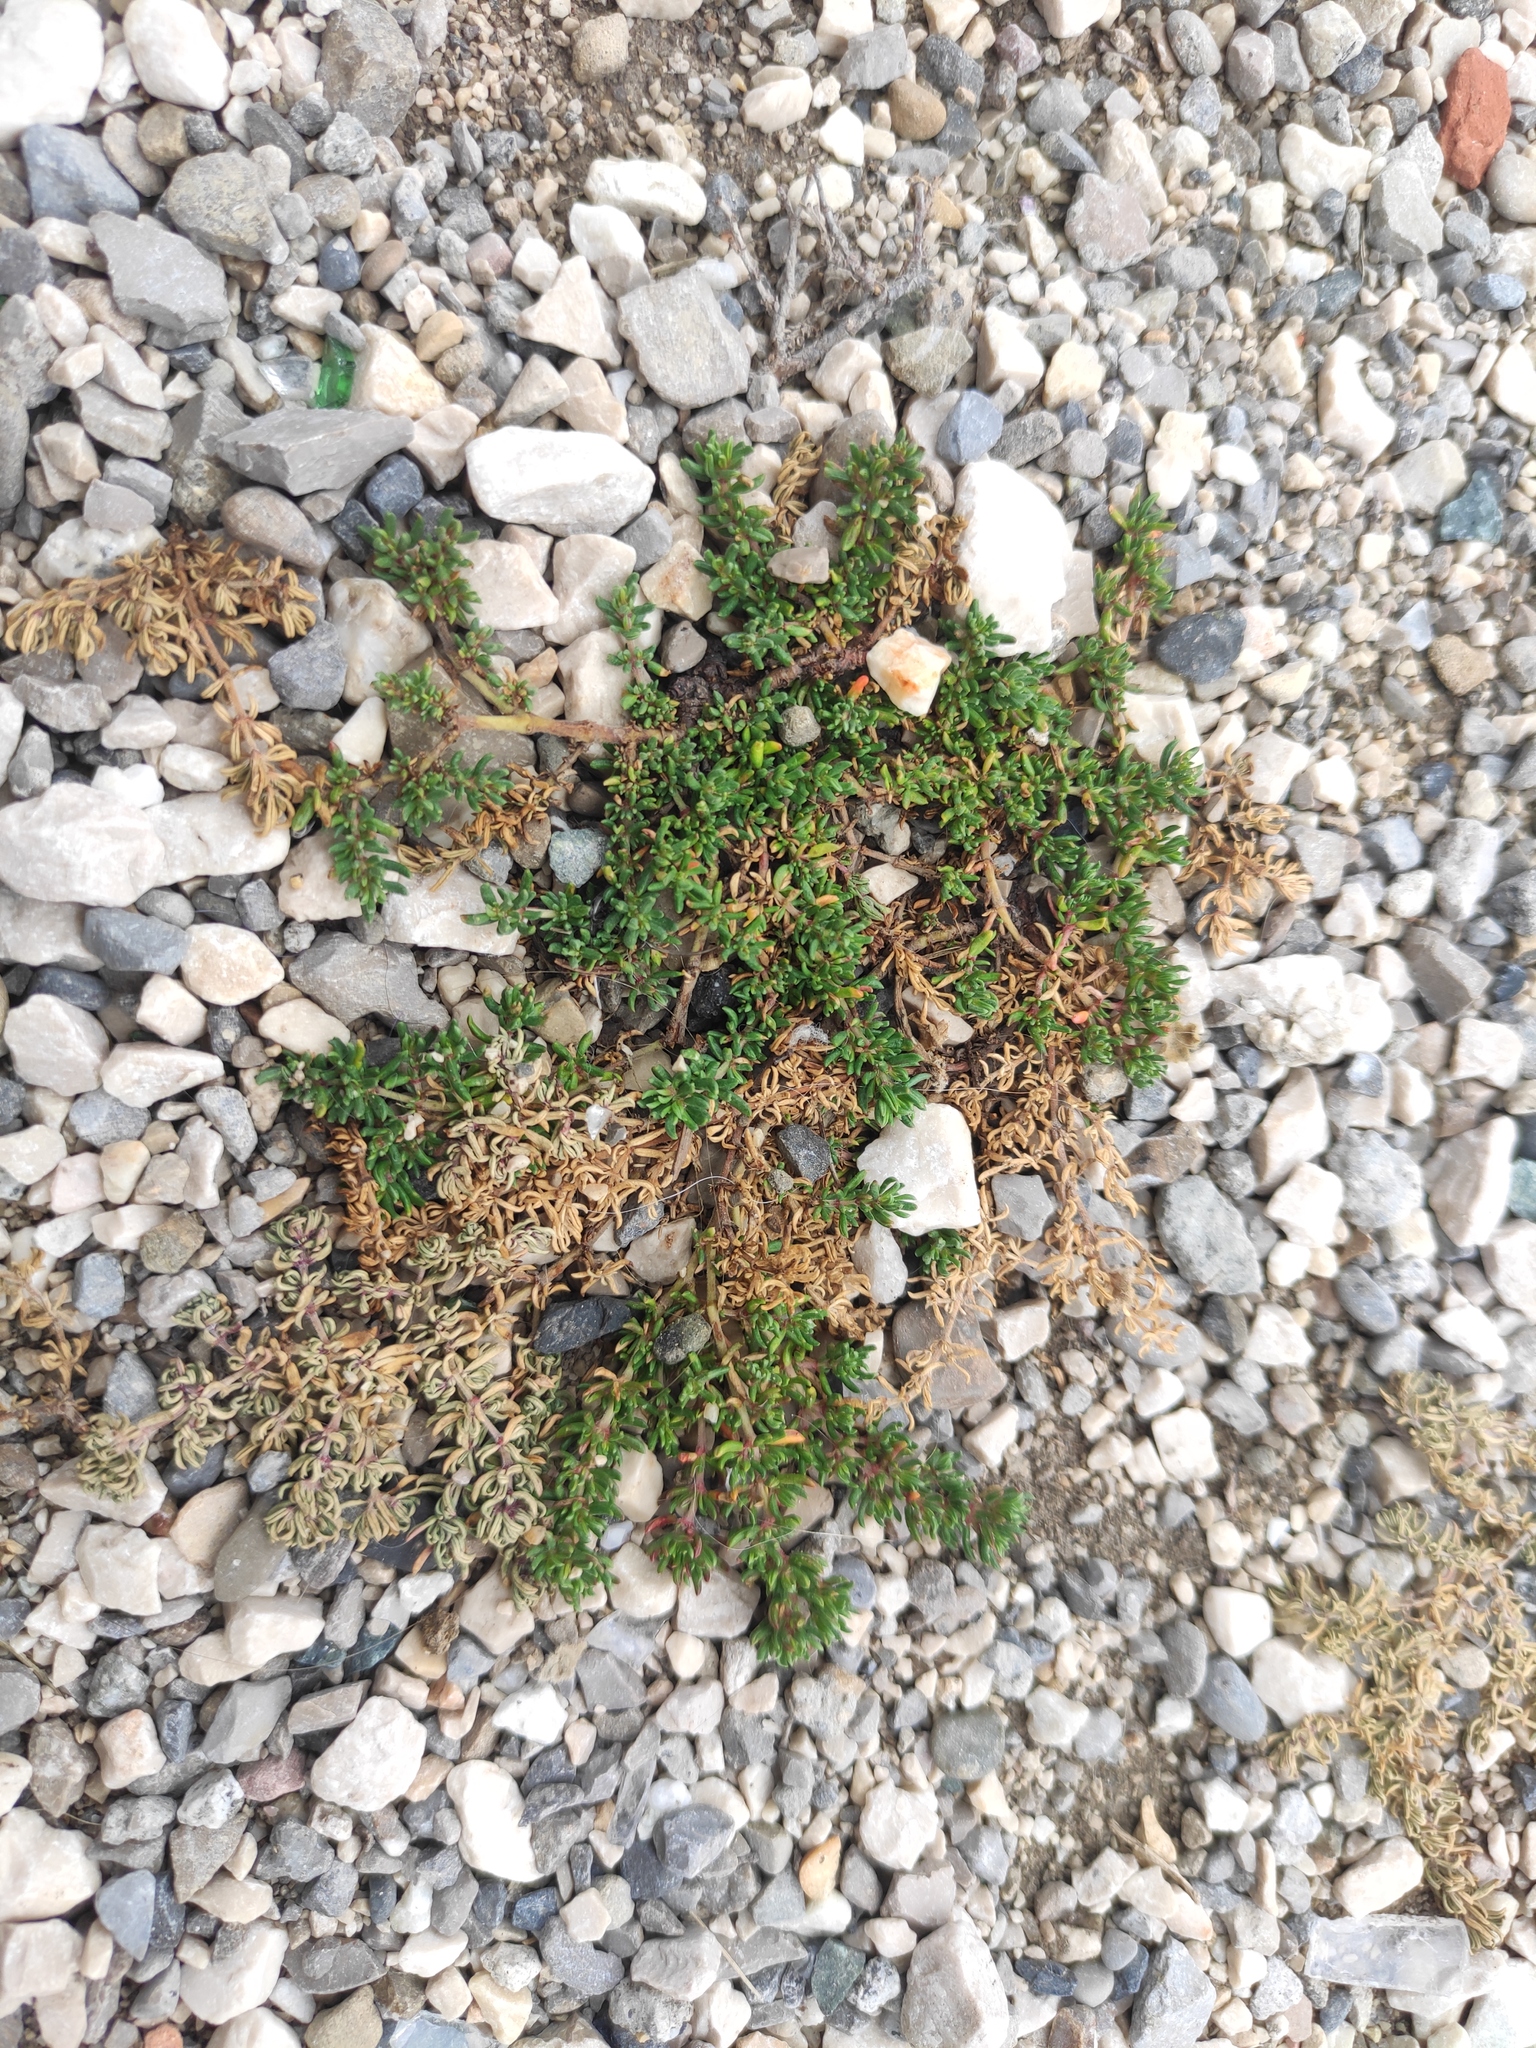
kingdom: Plantae
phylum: Tracheophyta
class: Magnoliopsida
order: Caryophyllales
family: Frankeniaceae
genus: Frankenia
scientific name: Frankenia hirsuta
